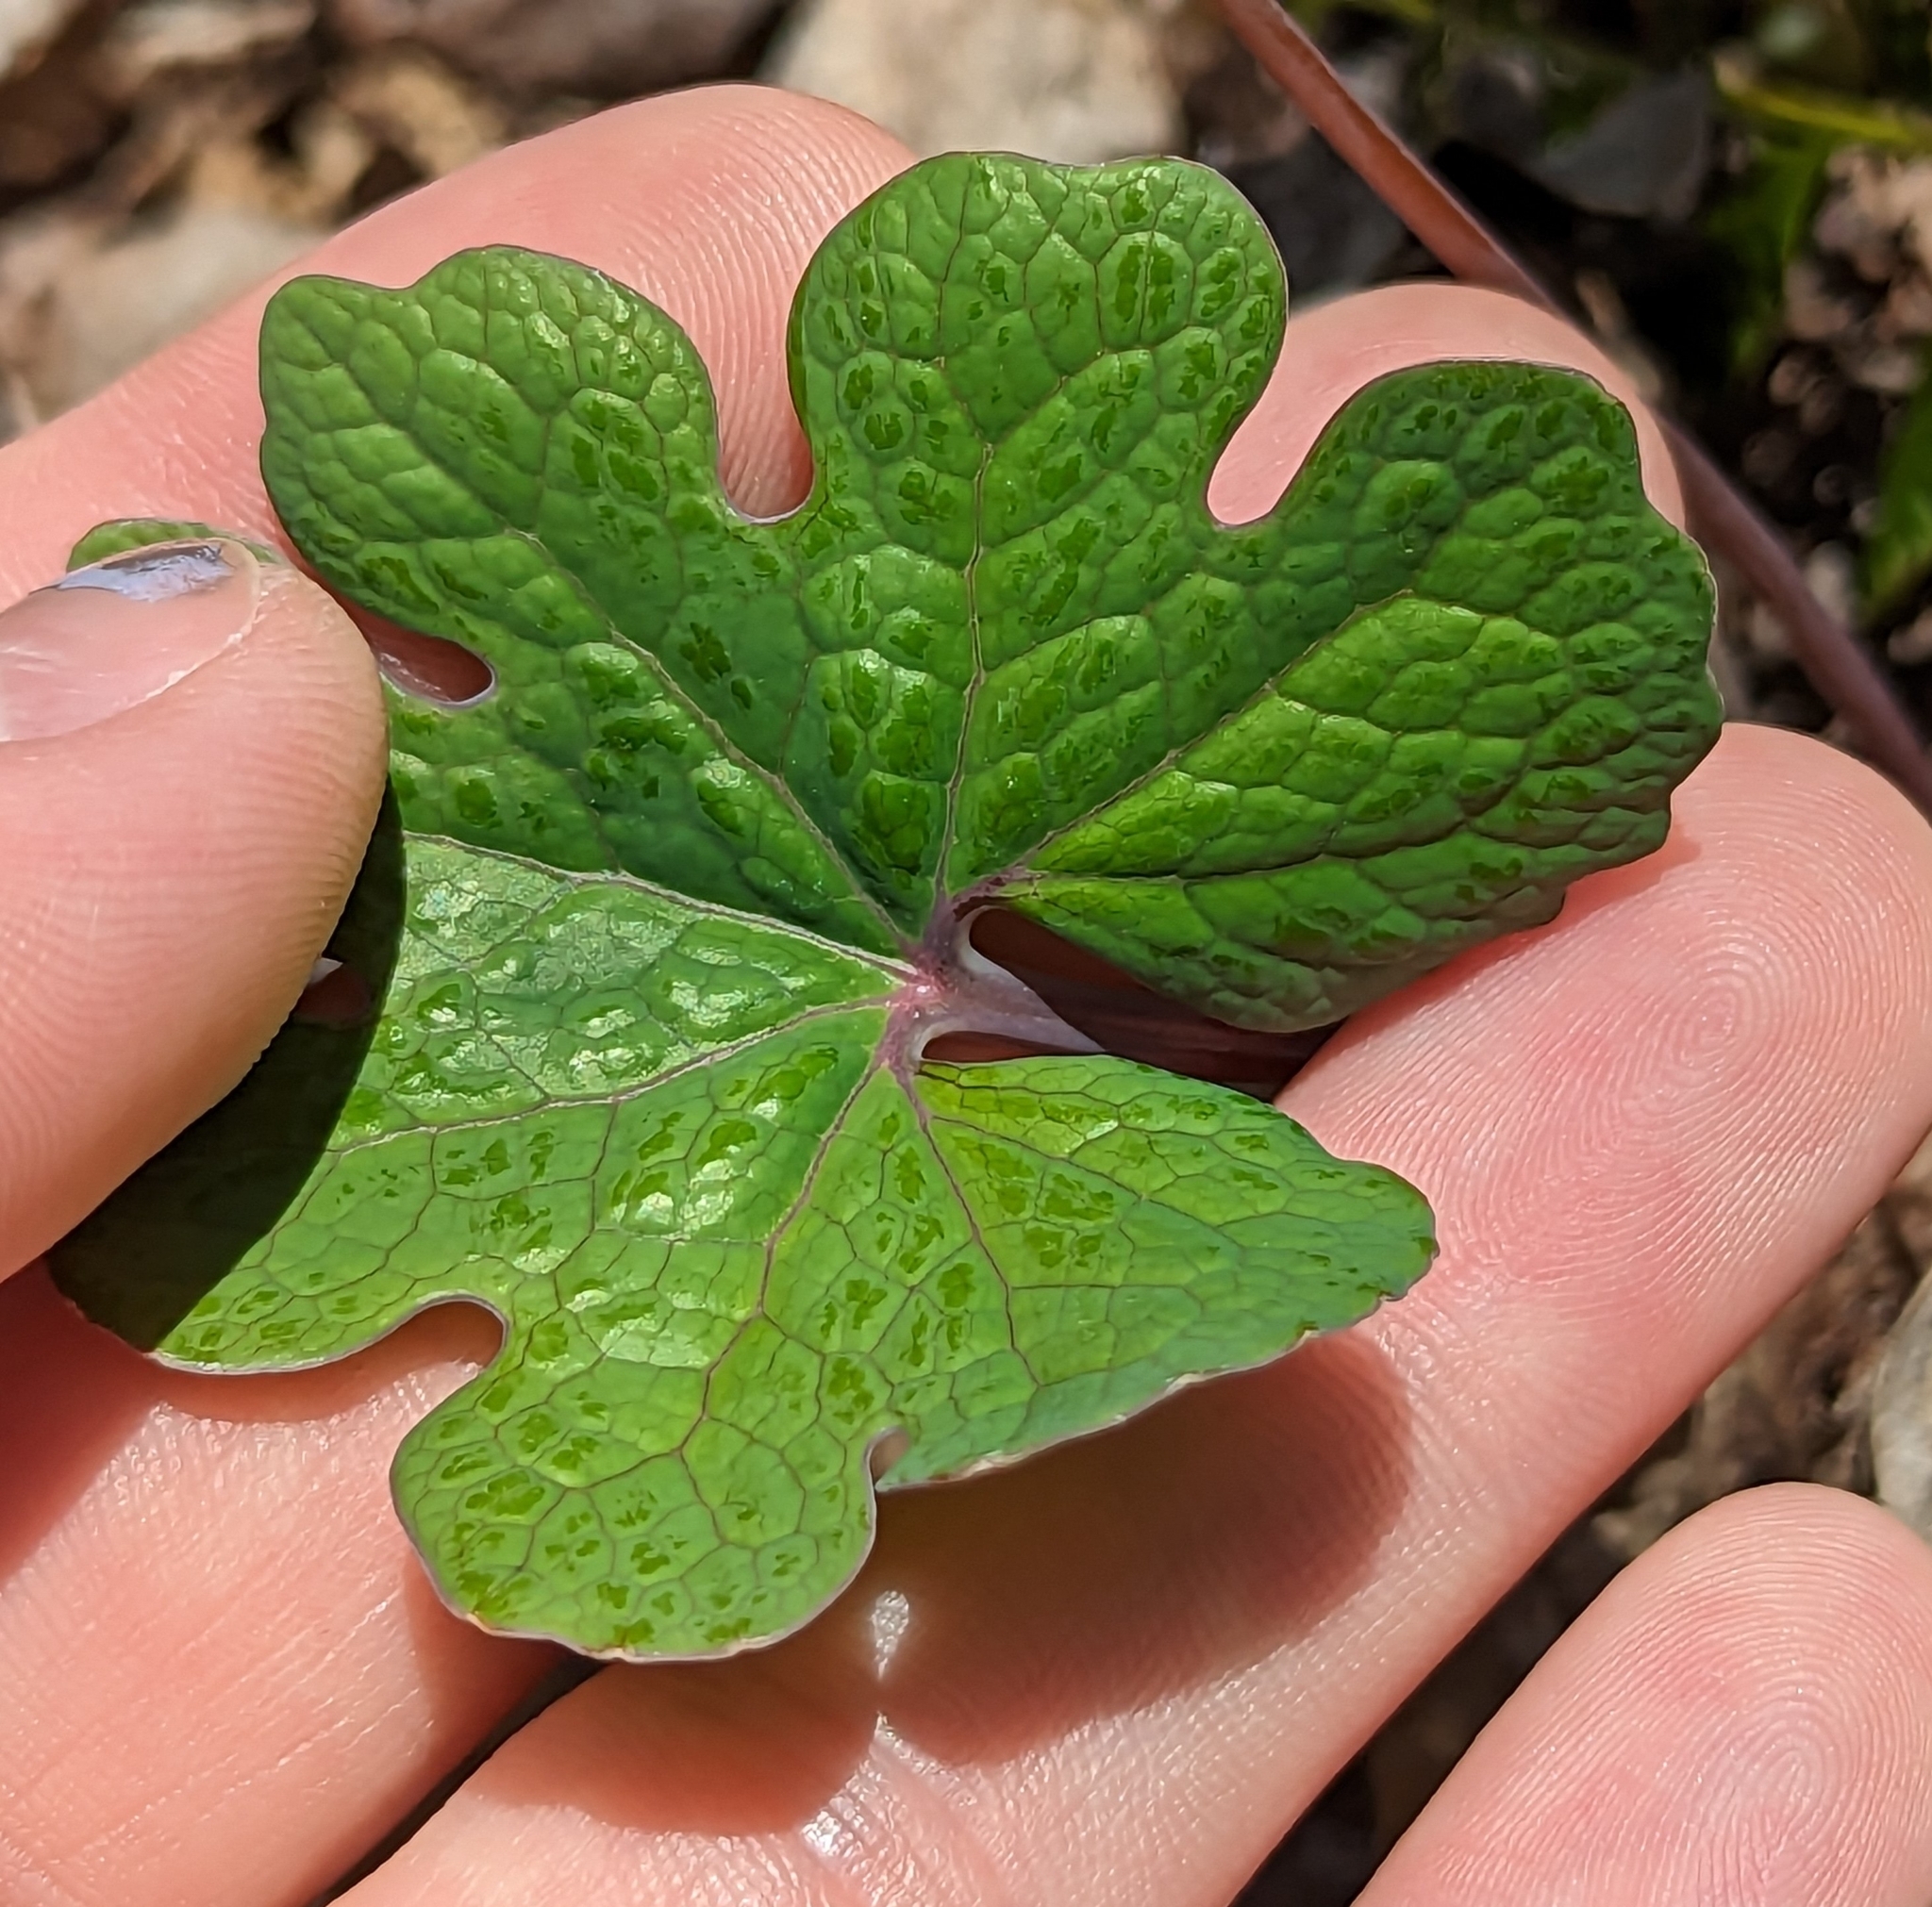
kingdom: Plantae
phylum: Tracheophyta
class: Magnoliopsida
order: Ranunculales
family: Papaveraceae
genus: Sanguinaria
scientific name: Sanguinaria canadensis
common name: Bloodroot
